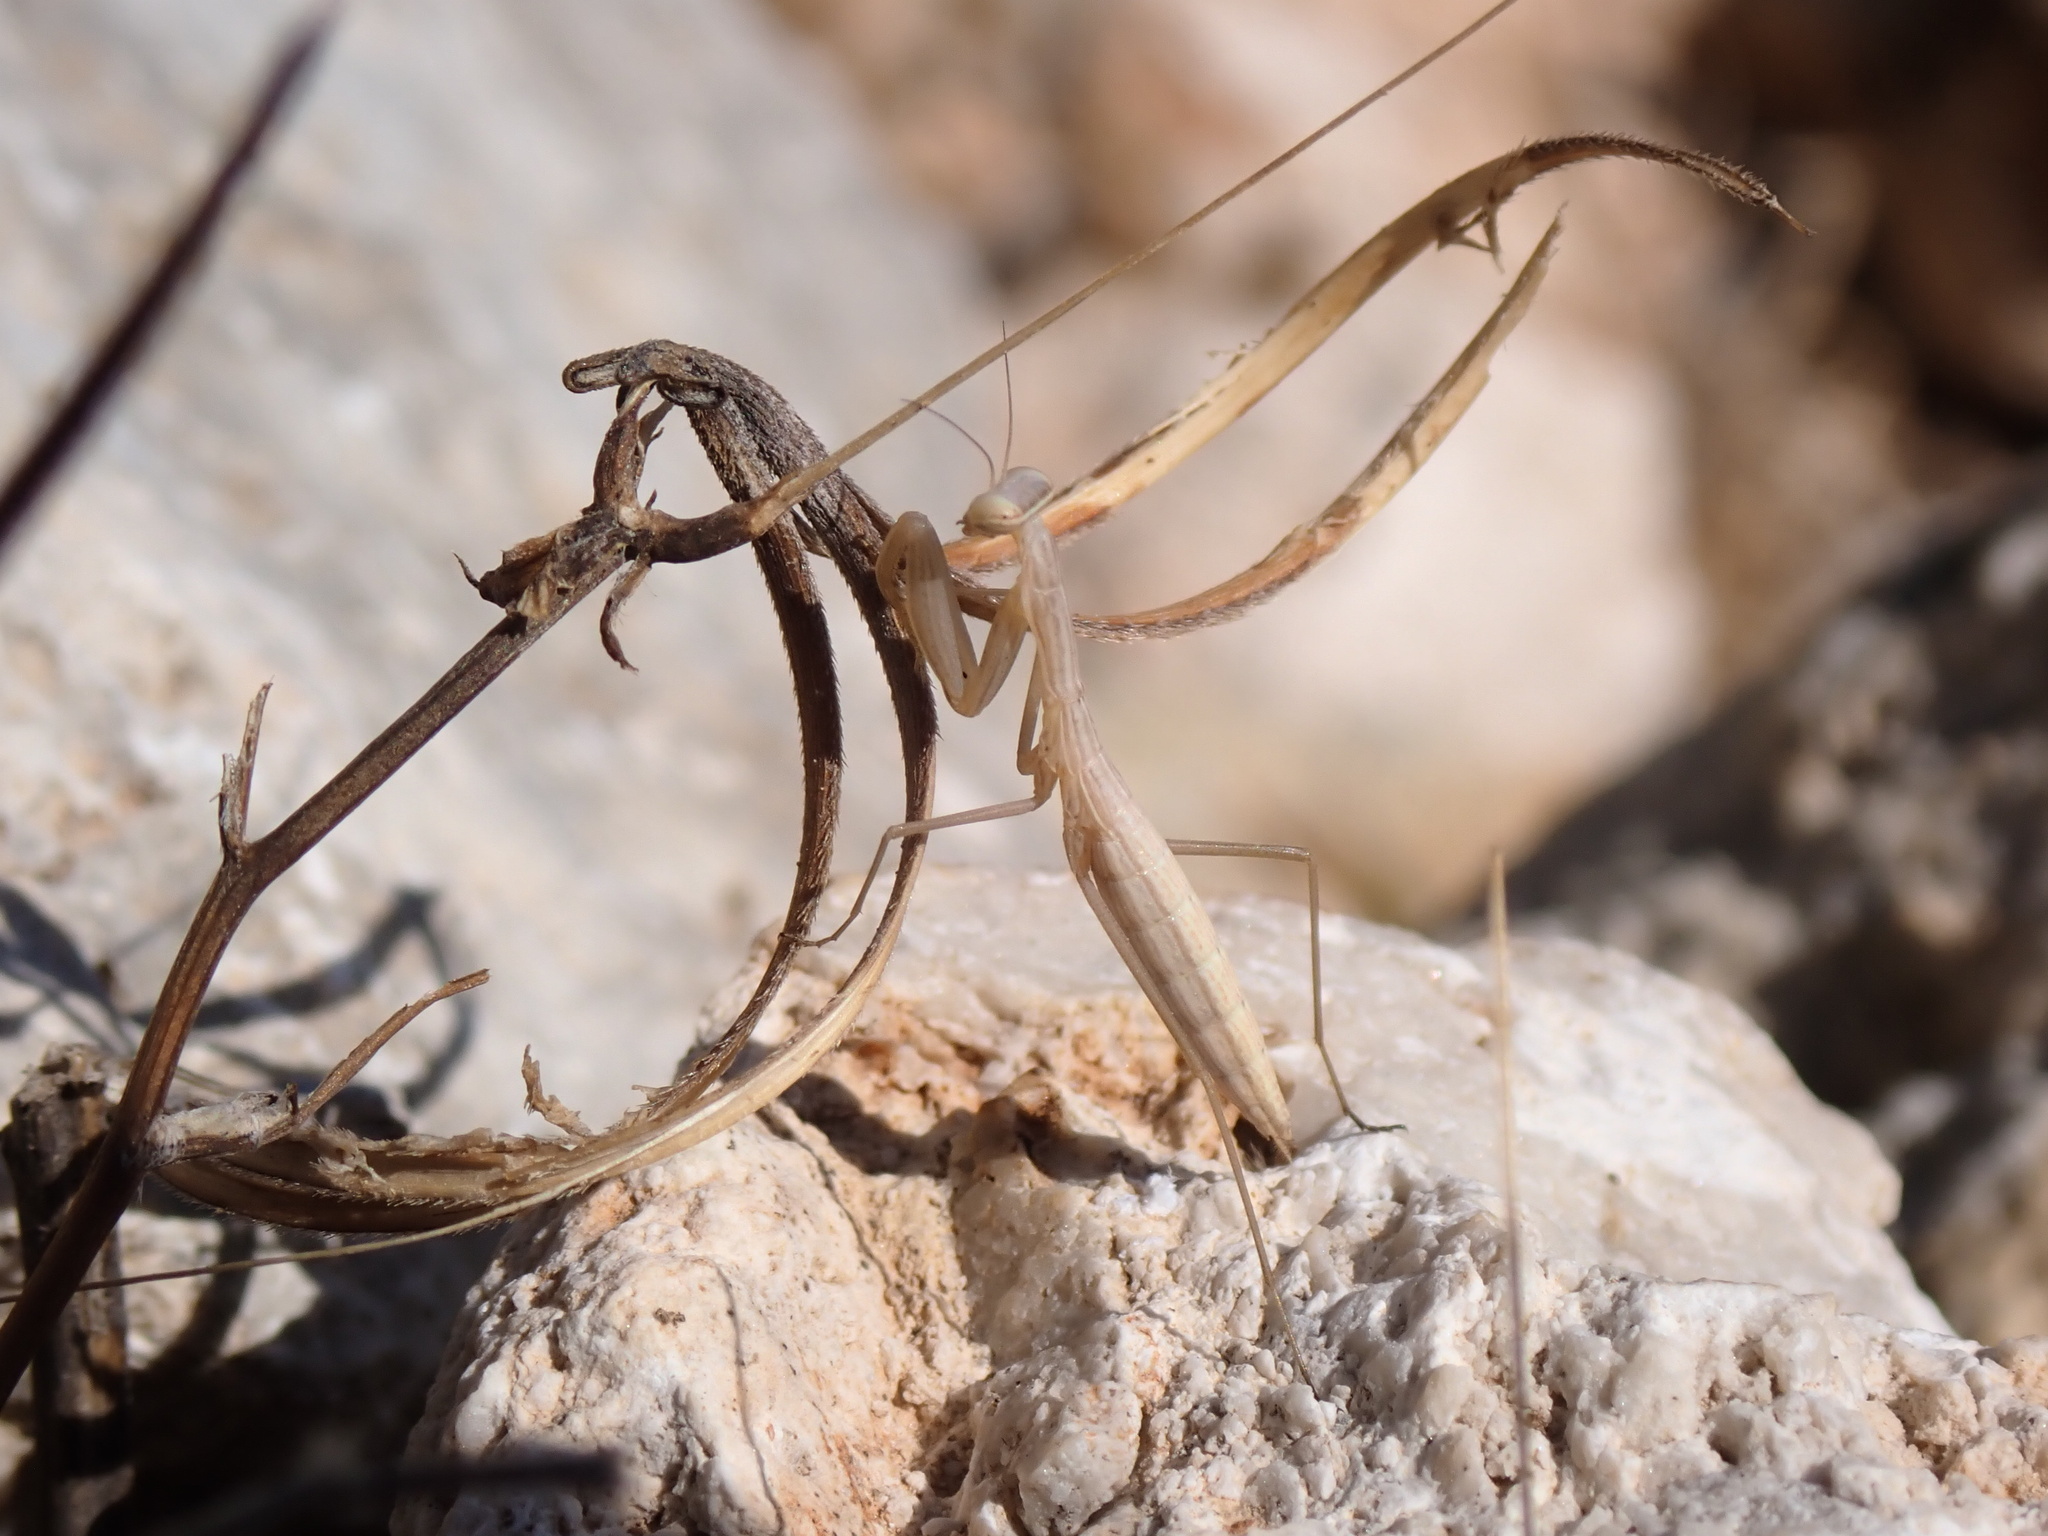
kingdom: Animalia
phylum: Arthropoda
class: Insecta
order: Mantodea
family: Mantidae
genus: Mantis
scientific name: Mantis religiosa
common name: Praying mantis
